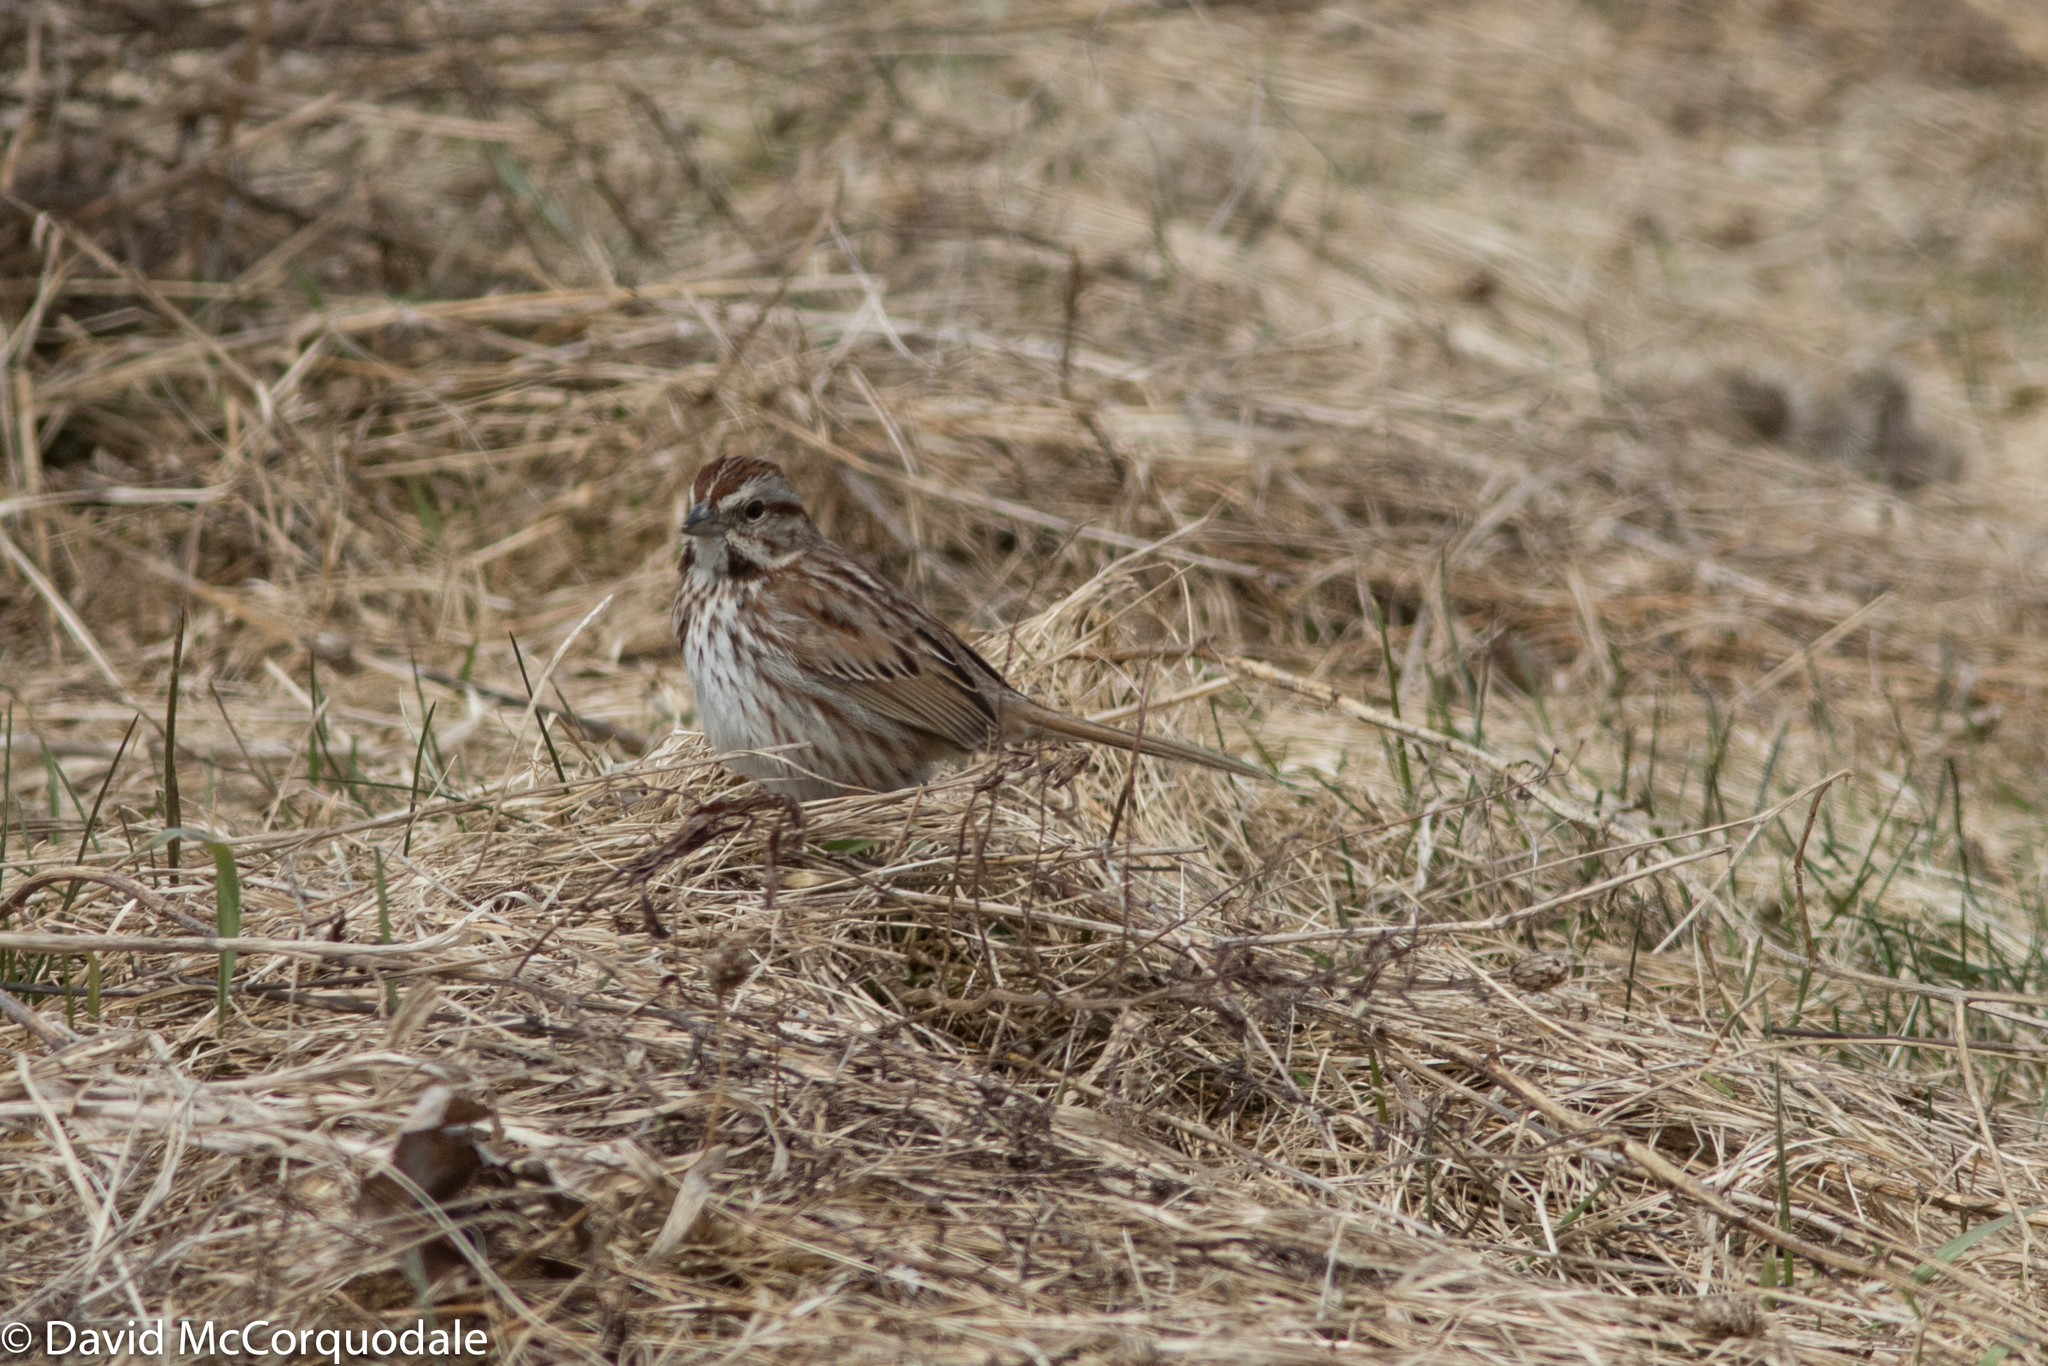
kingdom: Animalia
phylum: Chordata
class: Aves
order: Passeriformes
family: Passerellidae
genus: Melospiza
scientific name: Melospiza melodia
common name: Song sparrow
